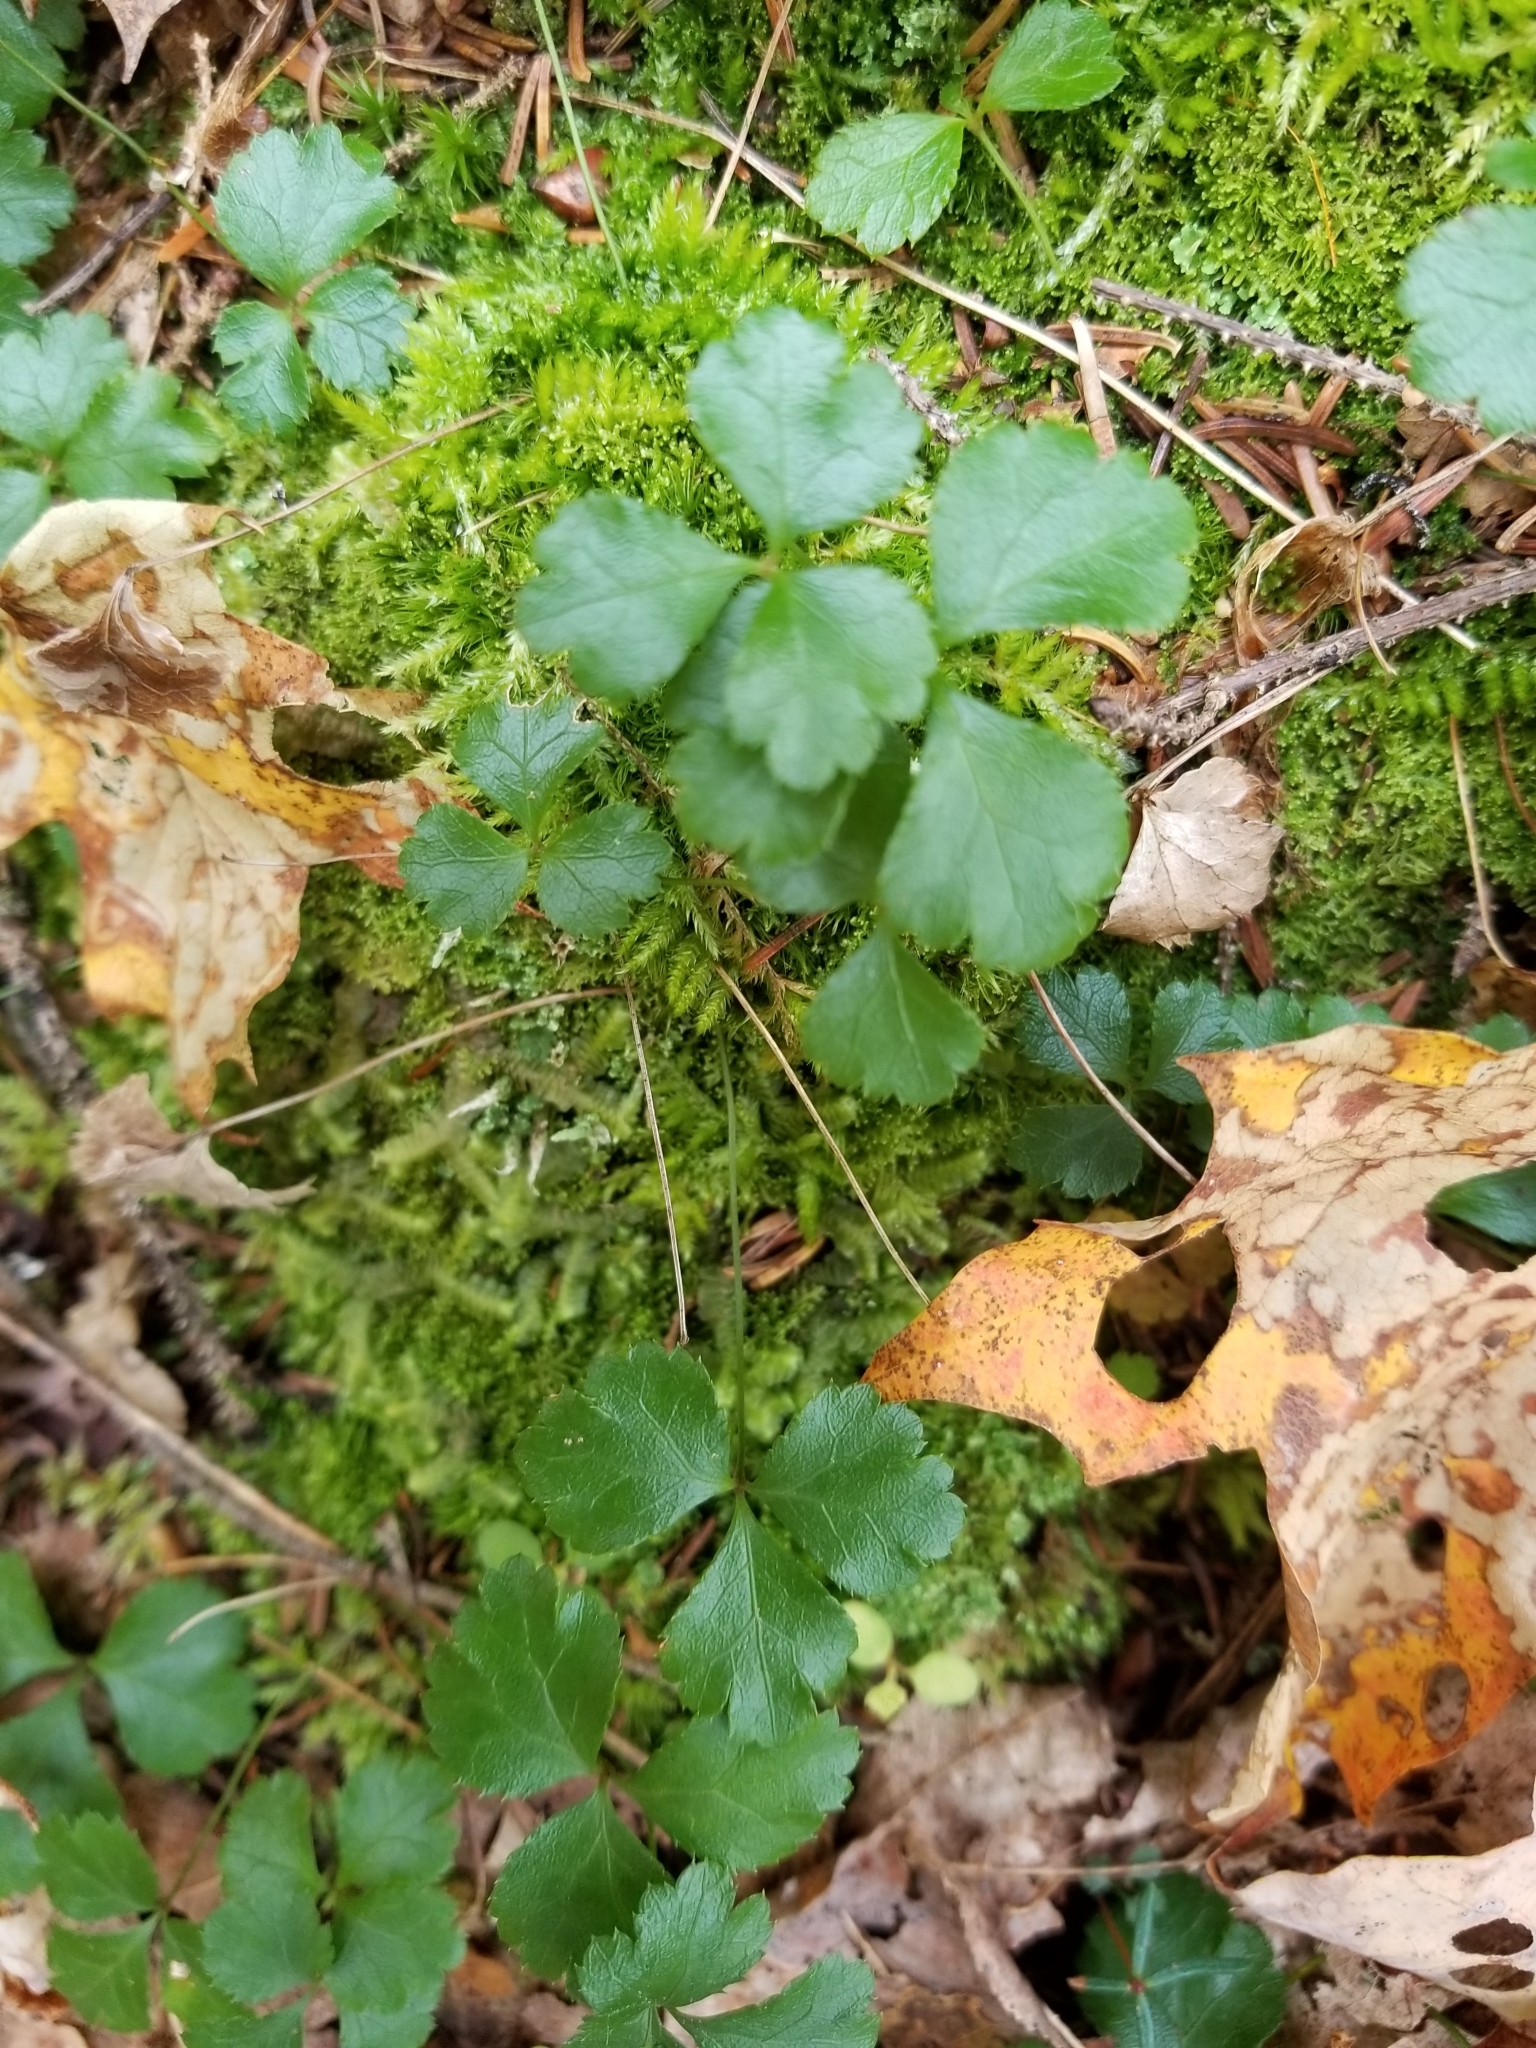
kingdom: Plantae
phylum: Tracheophyta
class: Magnoliopsida
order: Ranunculales
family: Ranunculaceae
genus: Coptis
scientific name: Coptis trifolia
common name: Canker-root
